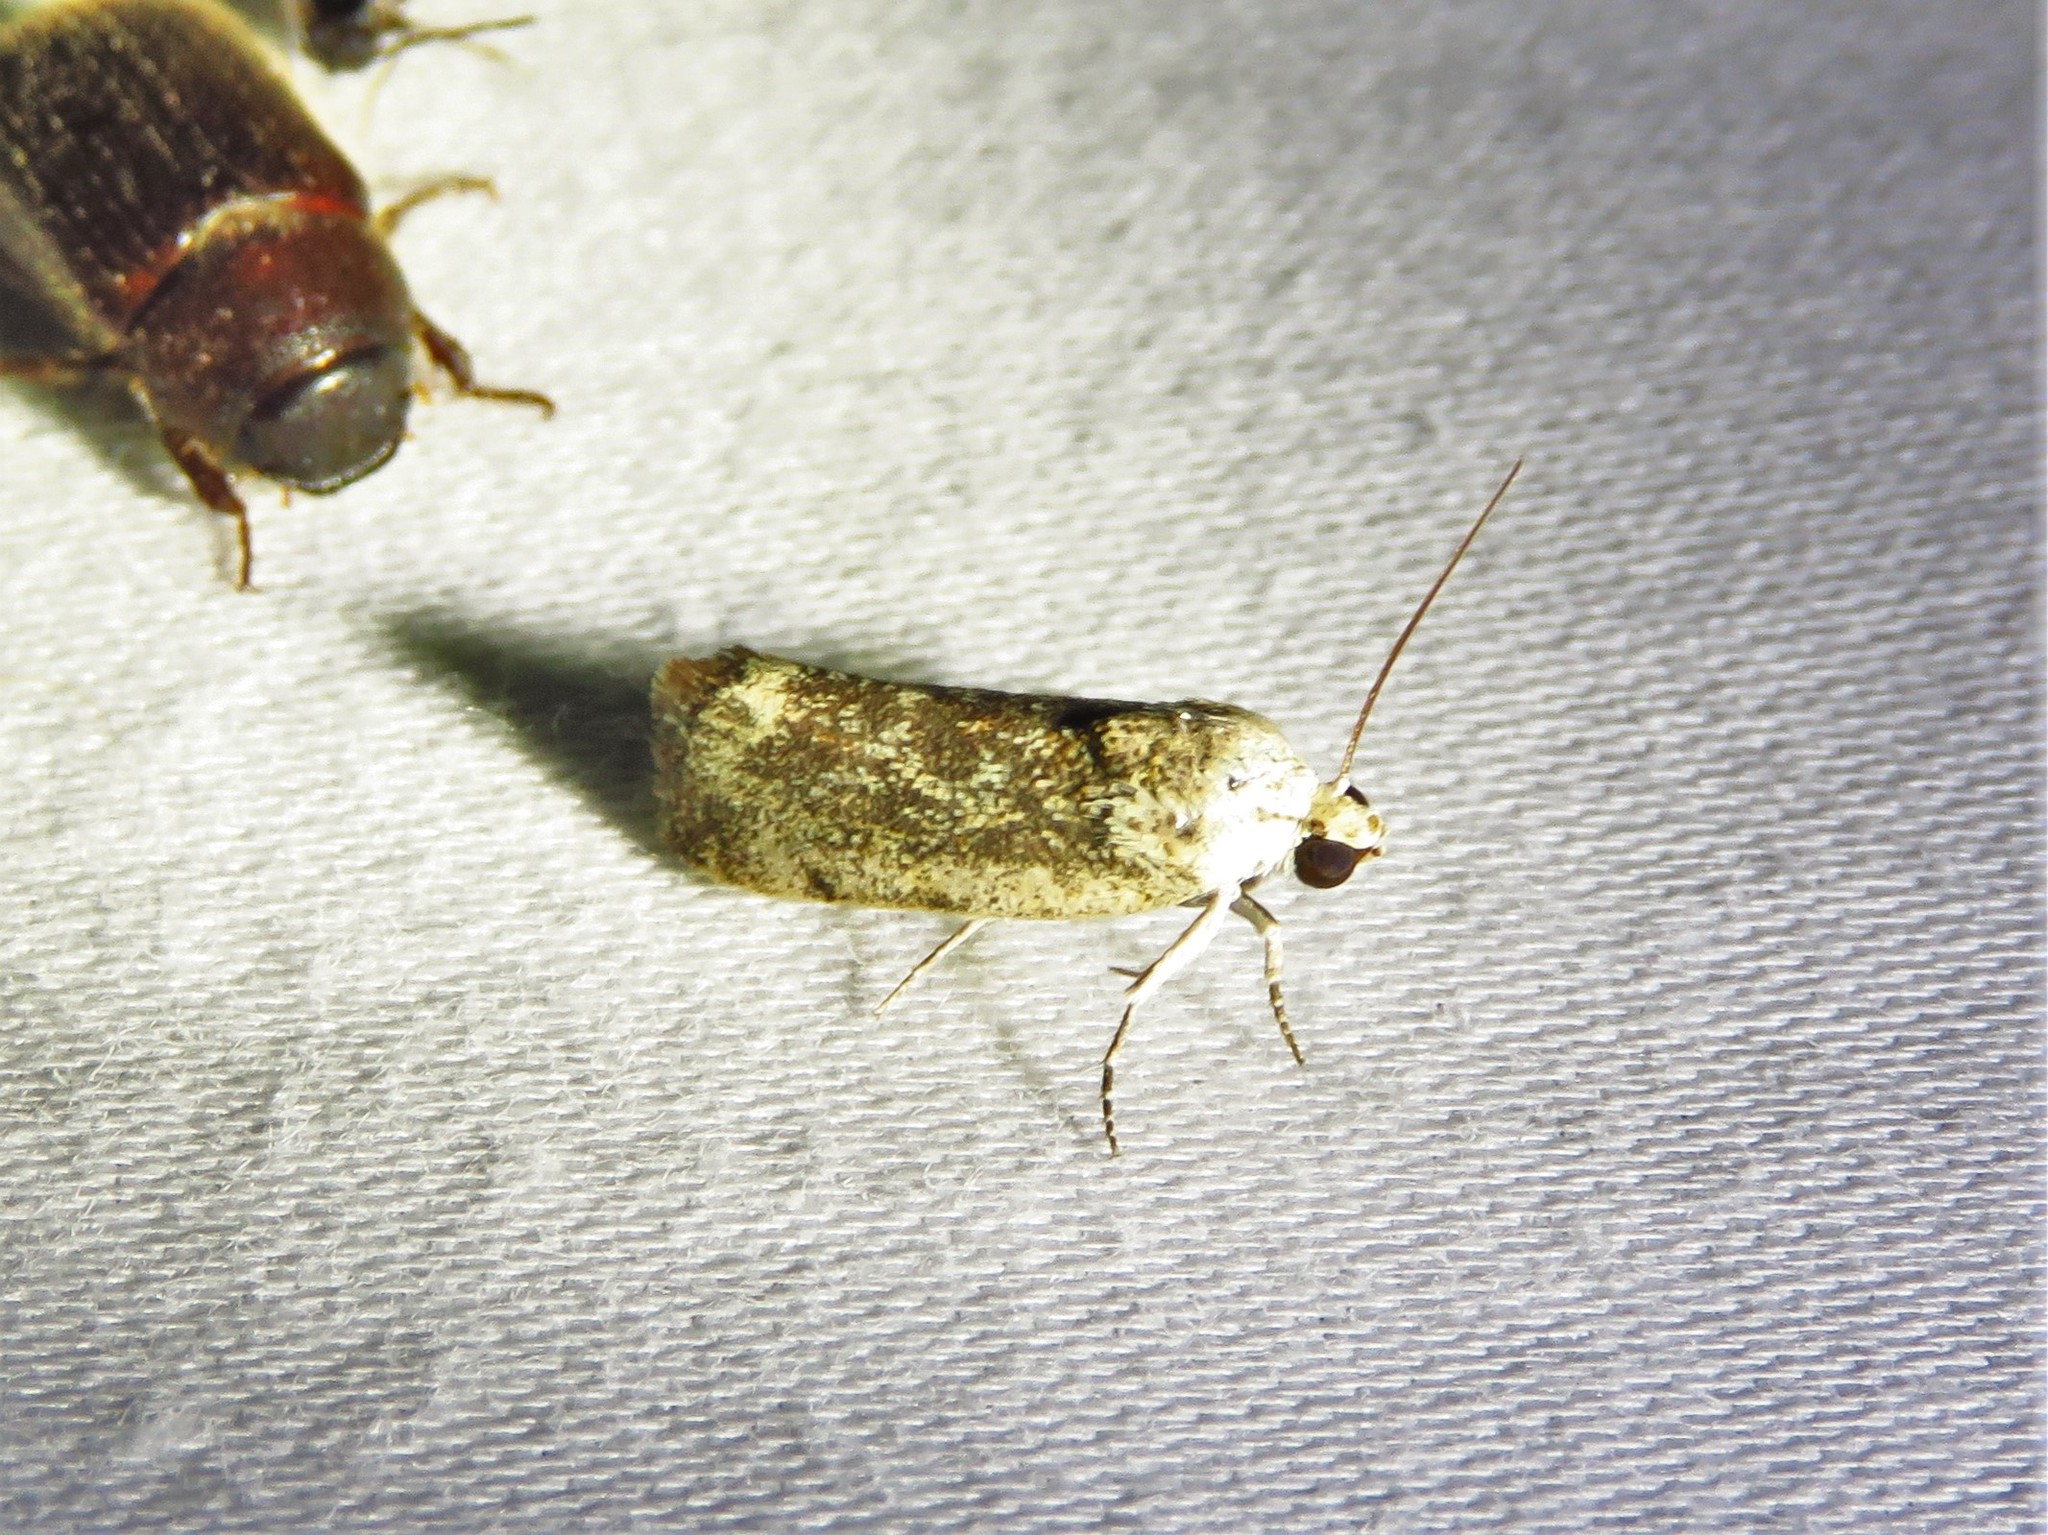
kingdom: Animalia
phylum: Arthropoda
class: Insecta
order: Lepidoptera
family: Noctuidae
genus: Acontia
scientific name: Acontia fasciatella
